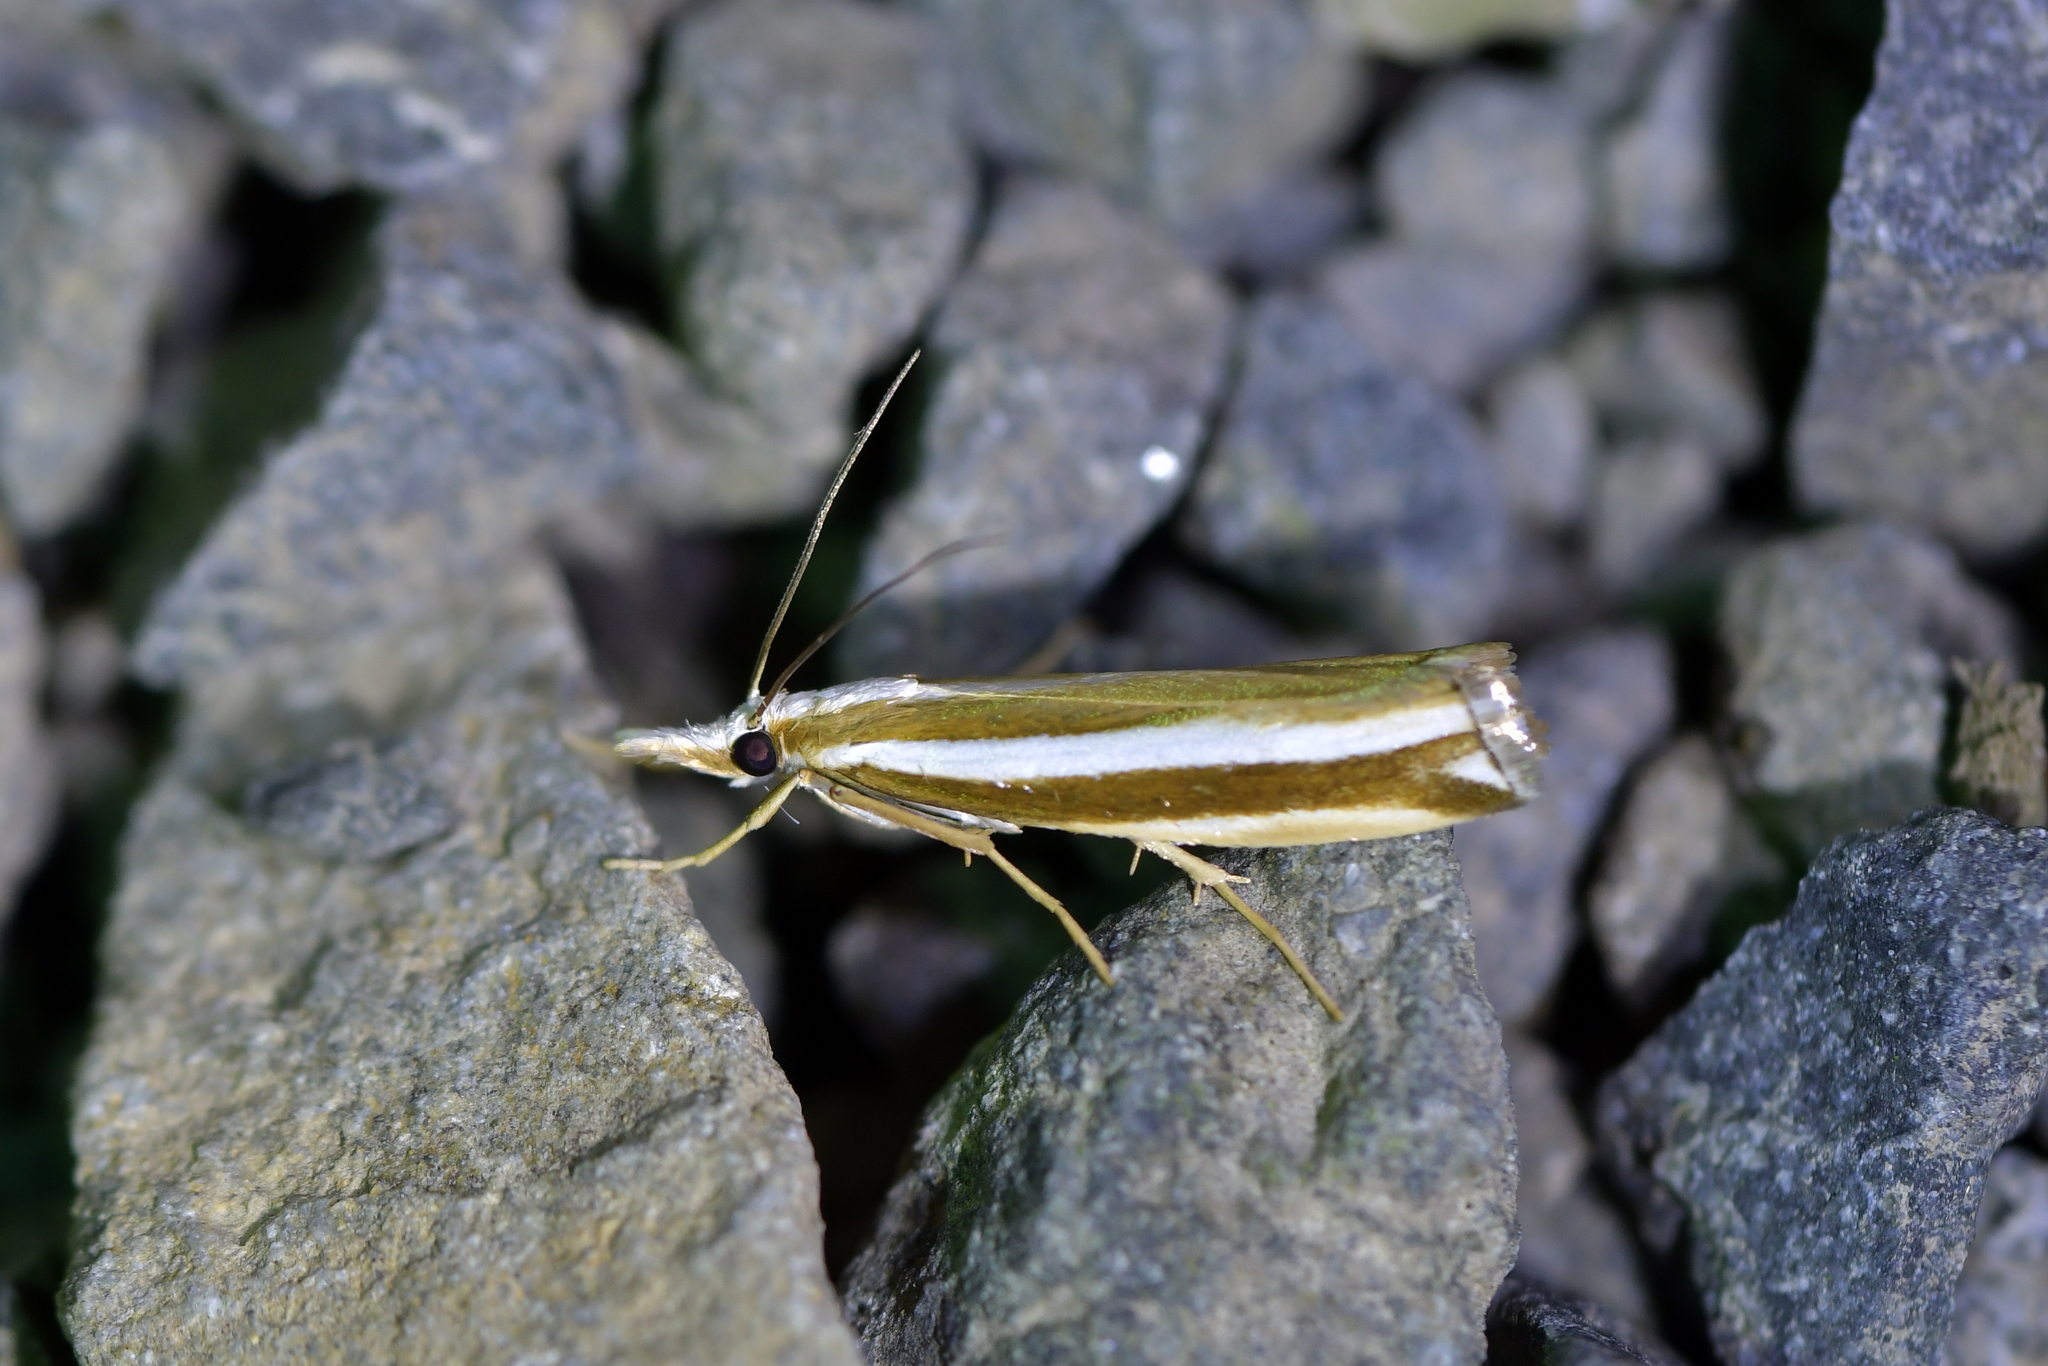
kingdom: Animalia
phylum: Arthropoda
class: Insecta
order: Lepidoptera
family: Crambidae
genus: Orocrambus
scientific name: Orocrambus apicellus
